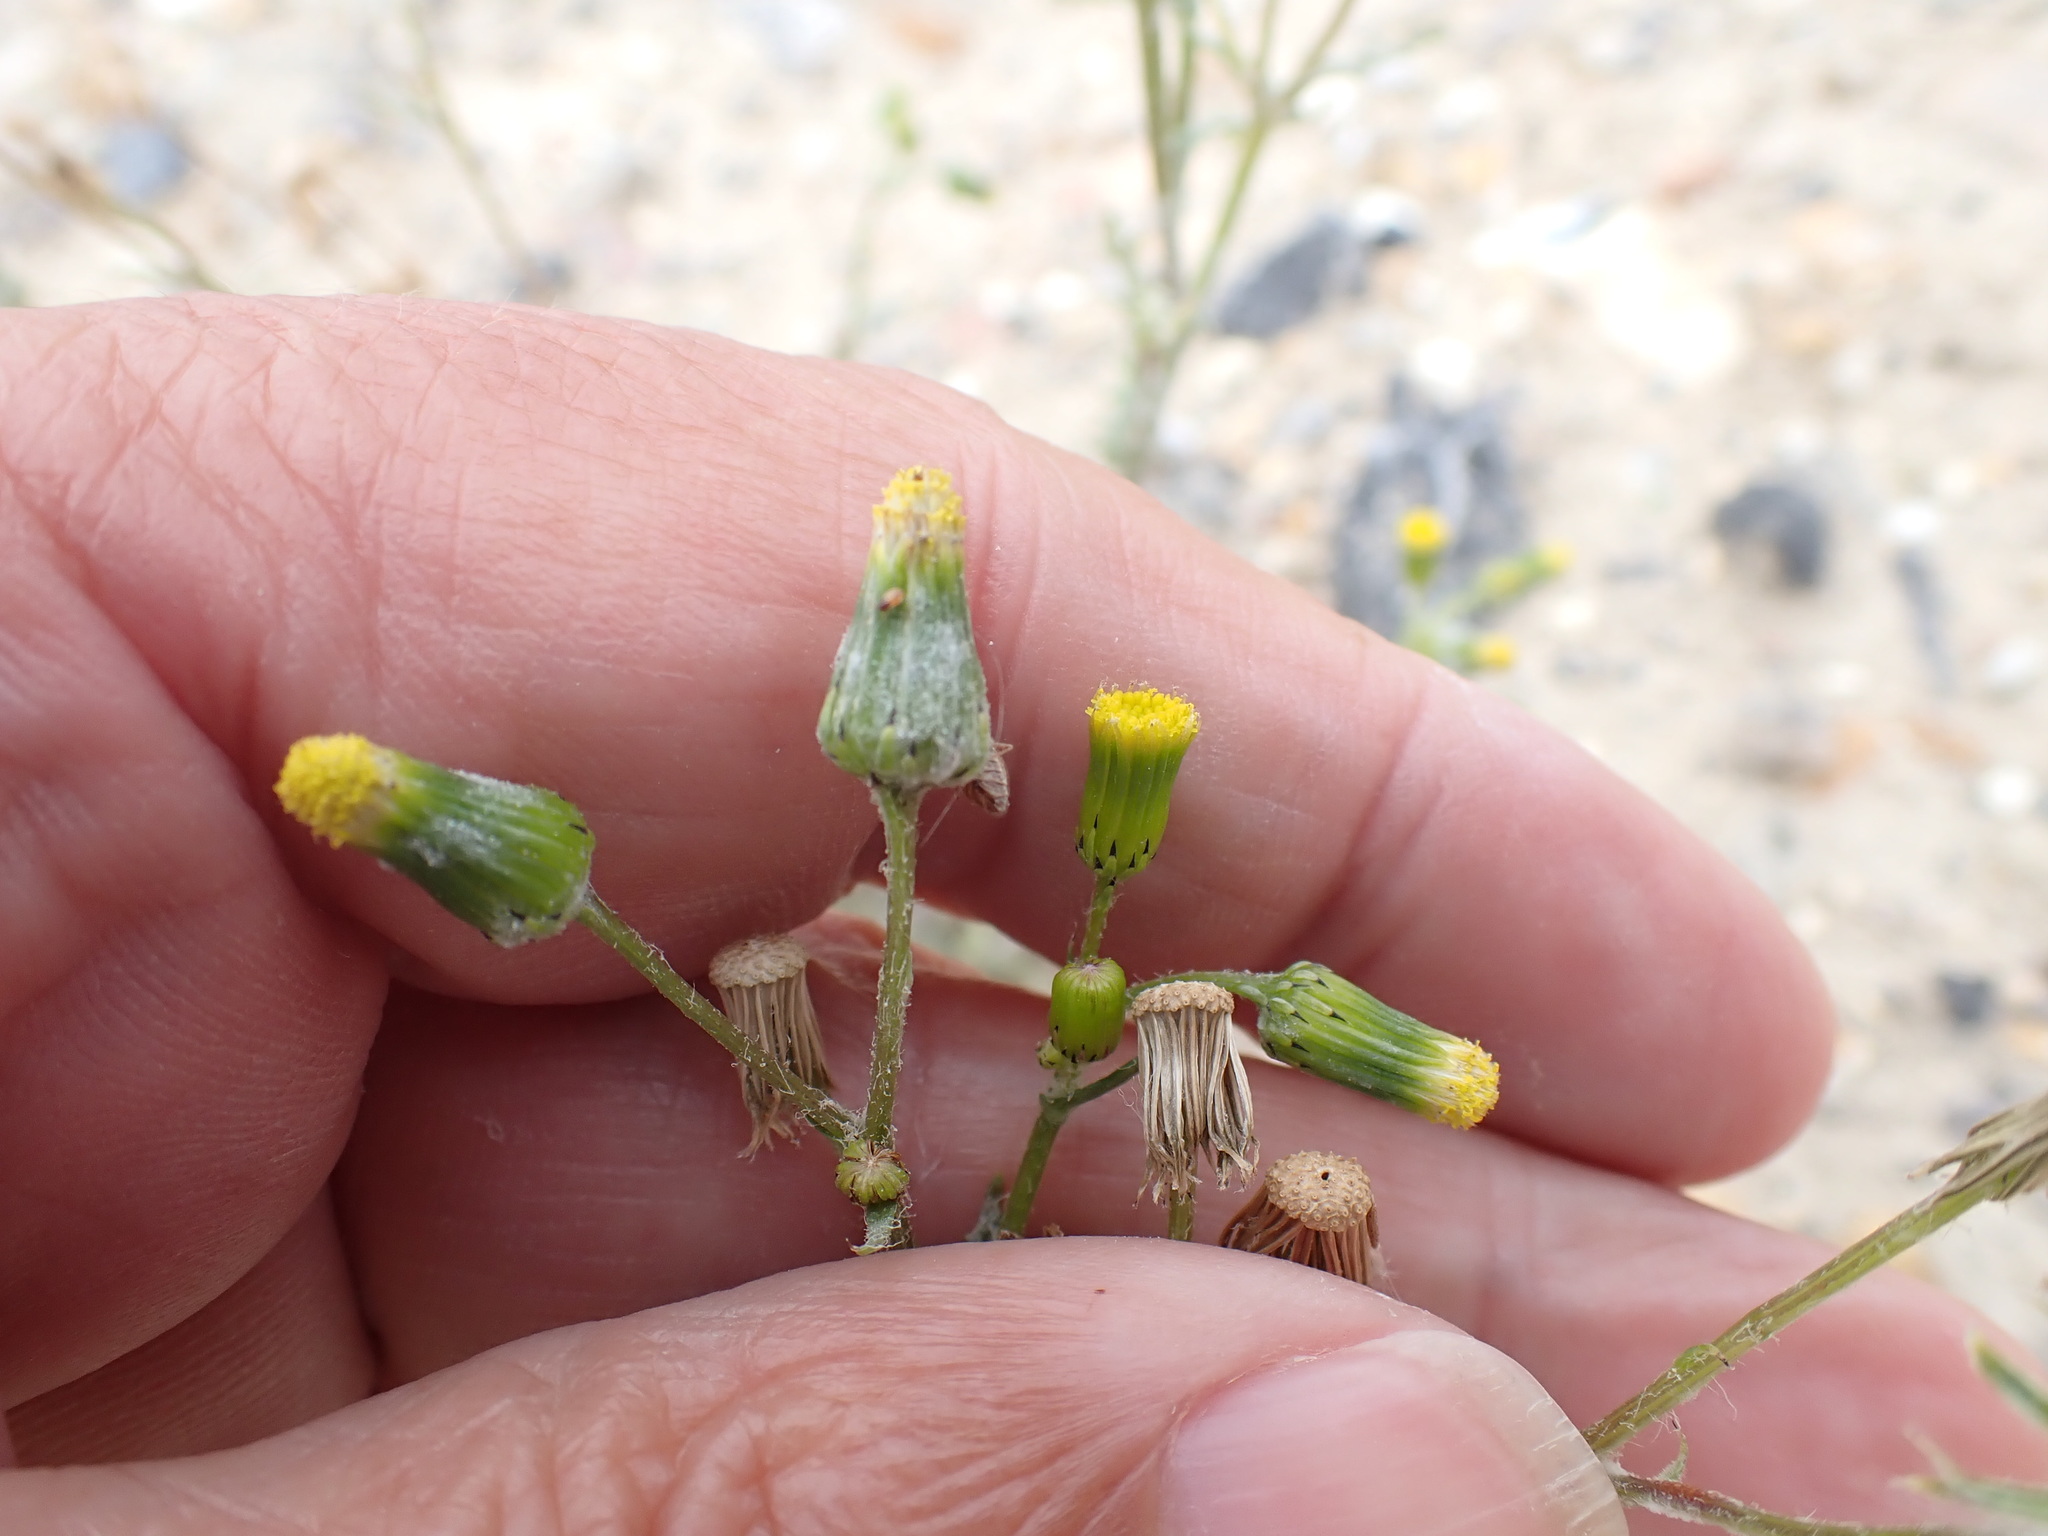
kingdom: Plantae
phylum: Tracheophyta
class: Magnoliopsida
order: Asterales
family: Asteraceae
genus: Senecio
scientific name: Senecio vulgaris
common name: Old-man-in-the-spring
